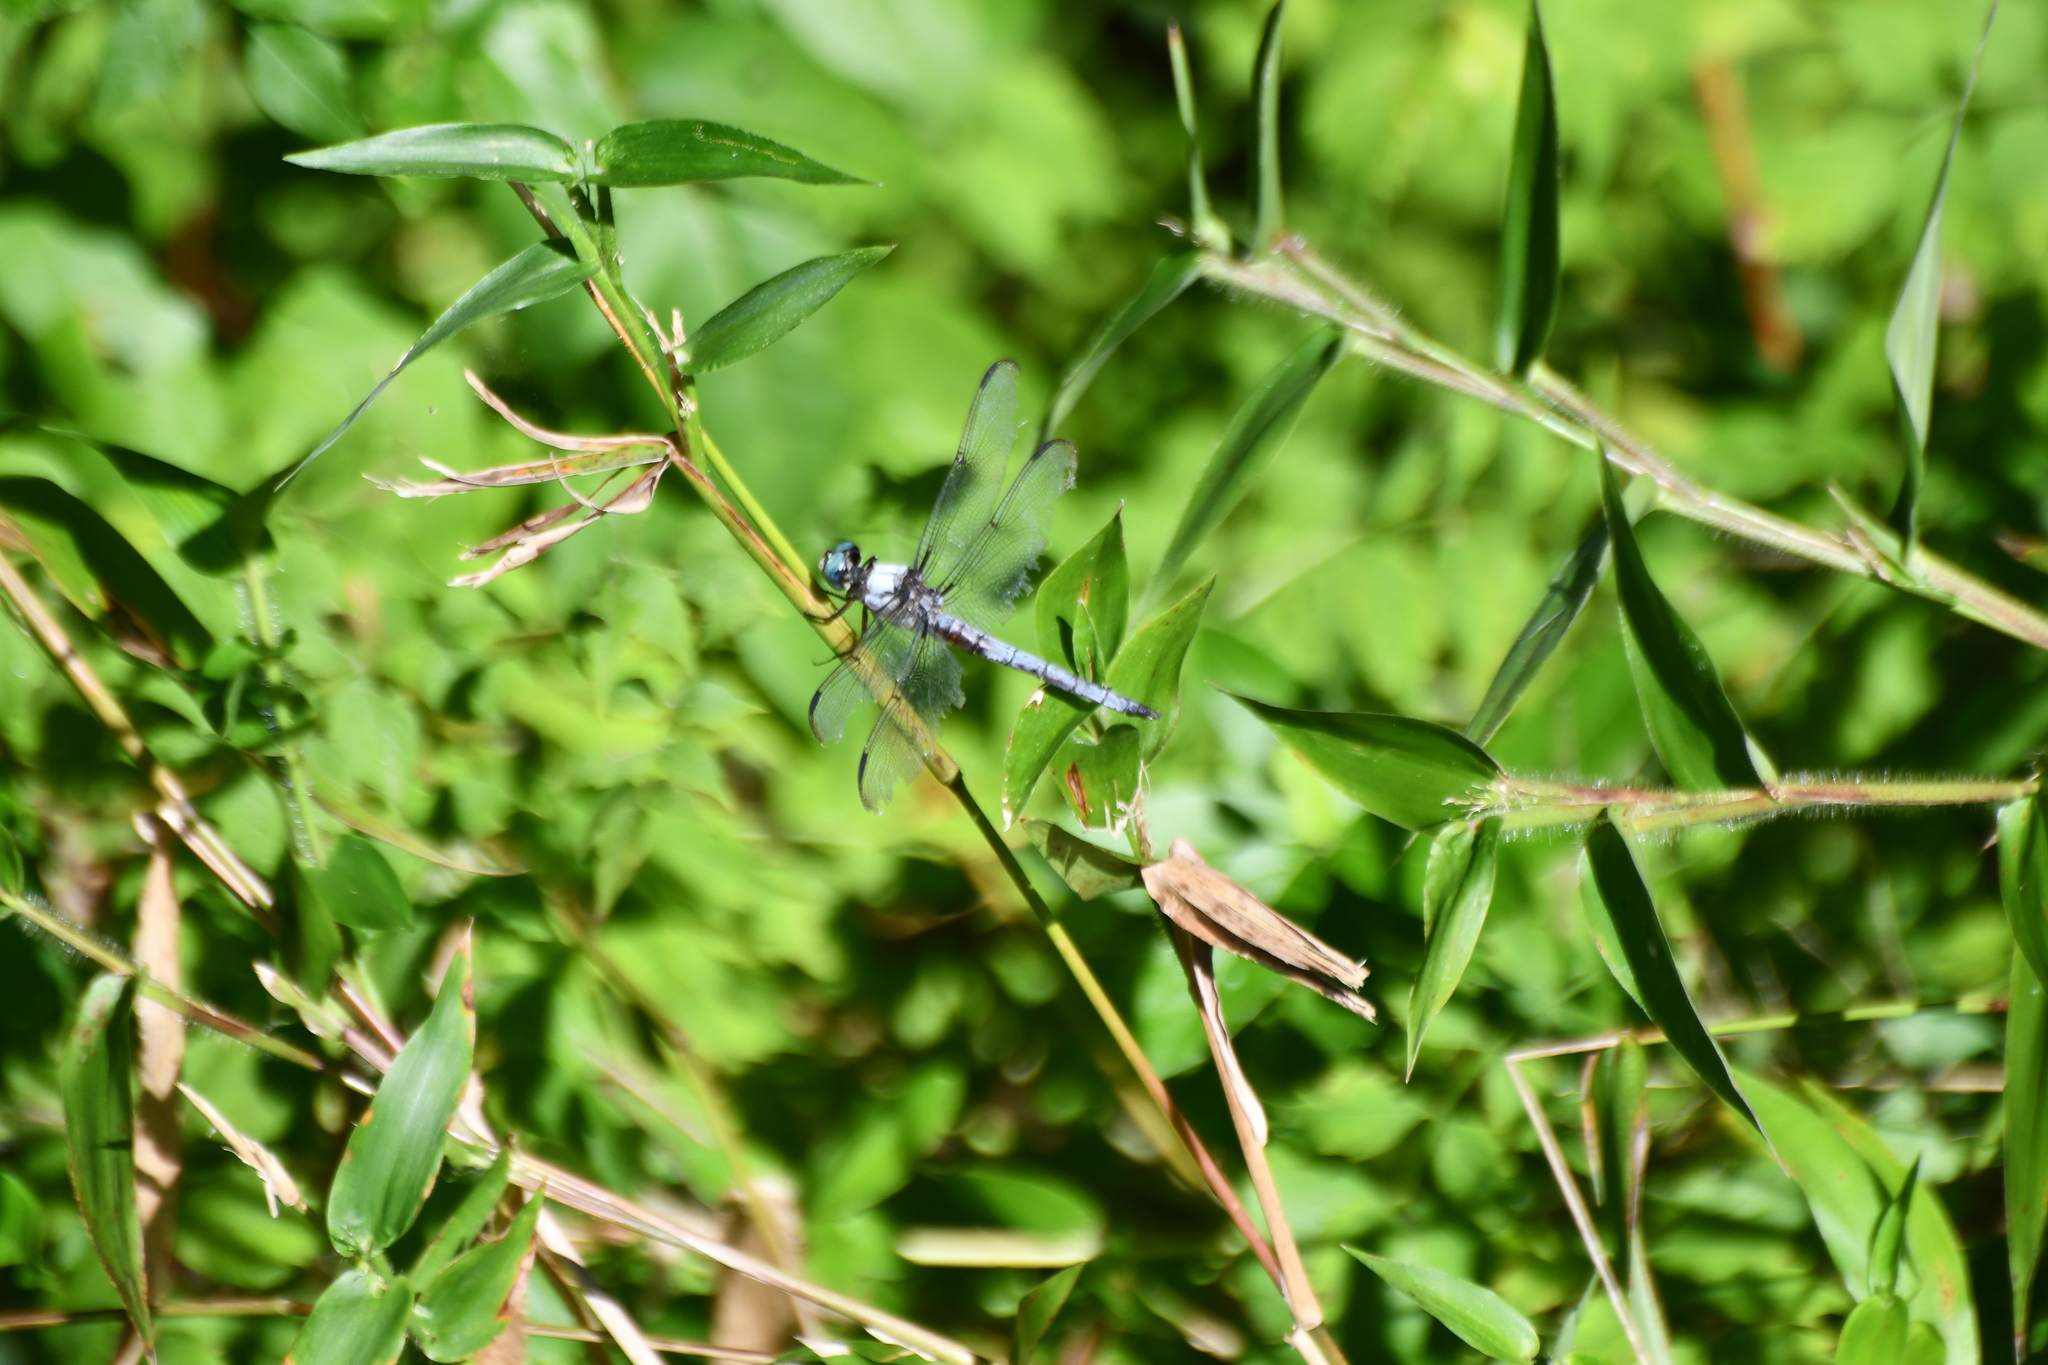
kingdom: Animalia
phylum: Arthropoda
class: Insecta
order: Odonata
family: Libellulidae
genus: Libellula
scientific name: Libellula vibrans
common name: Great blue skimmer
